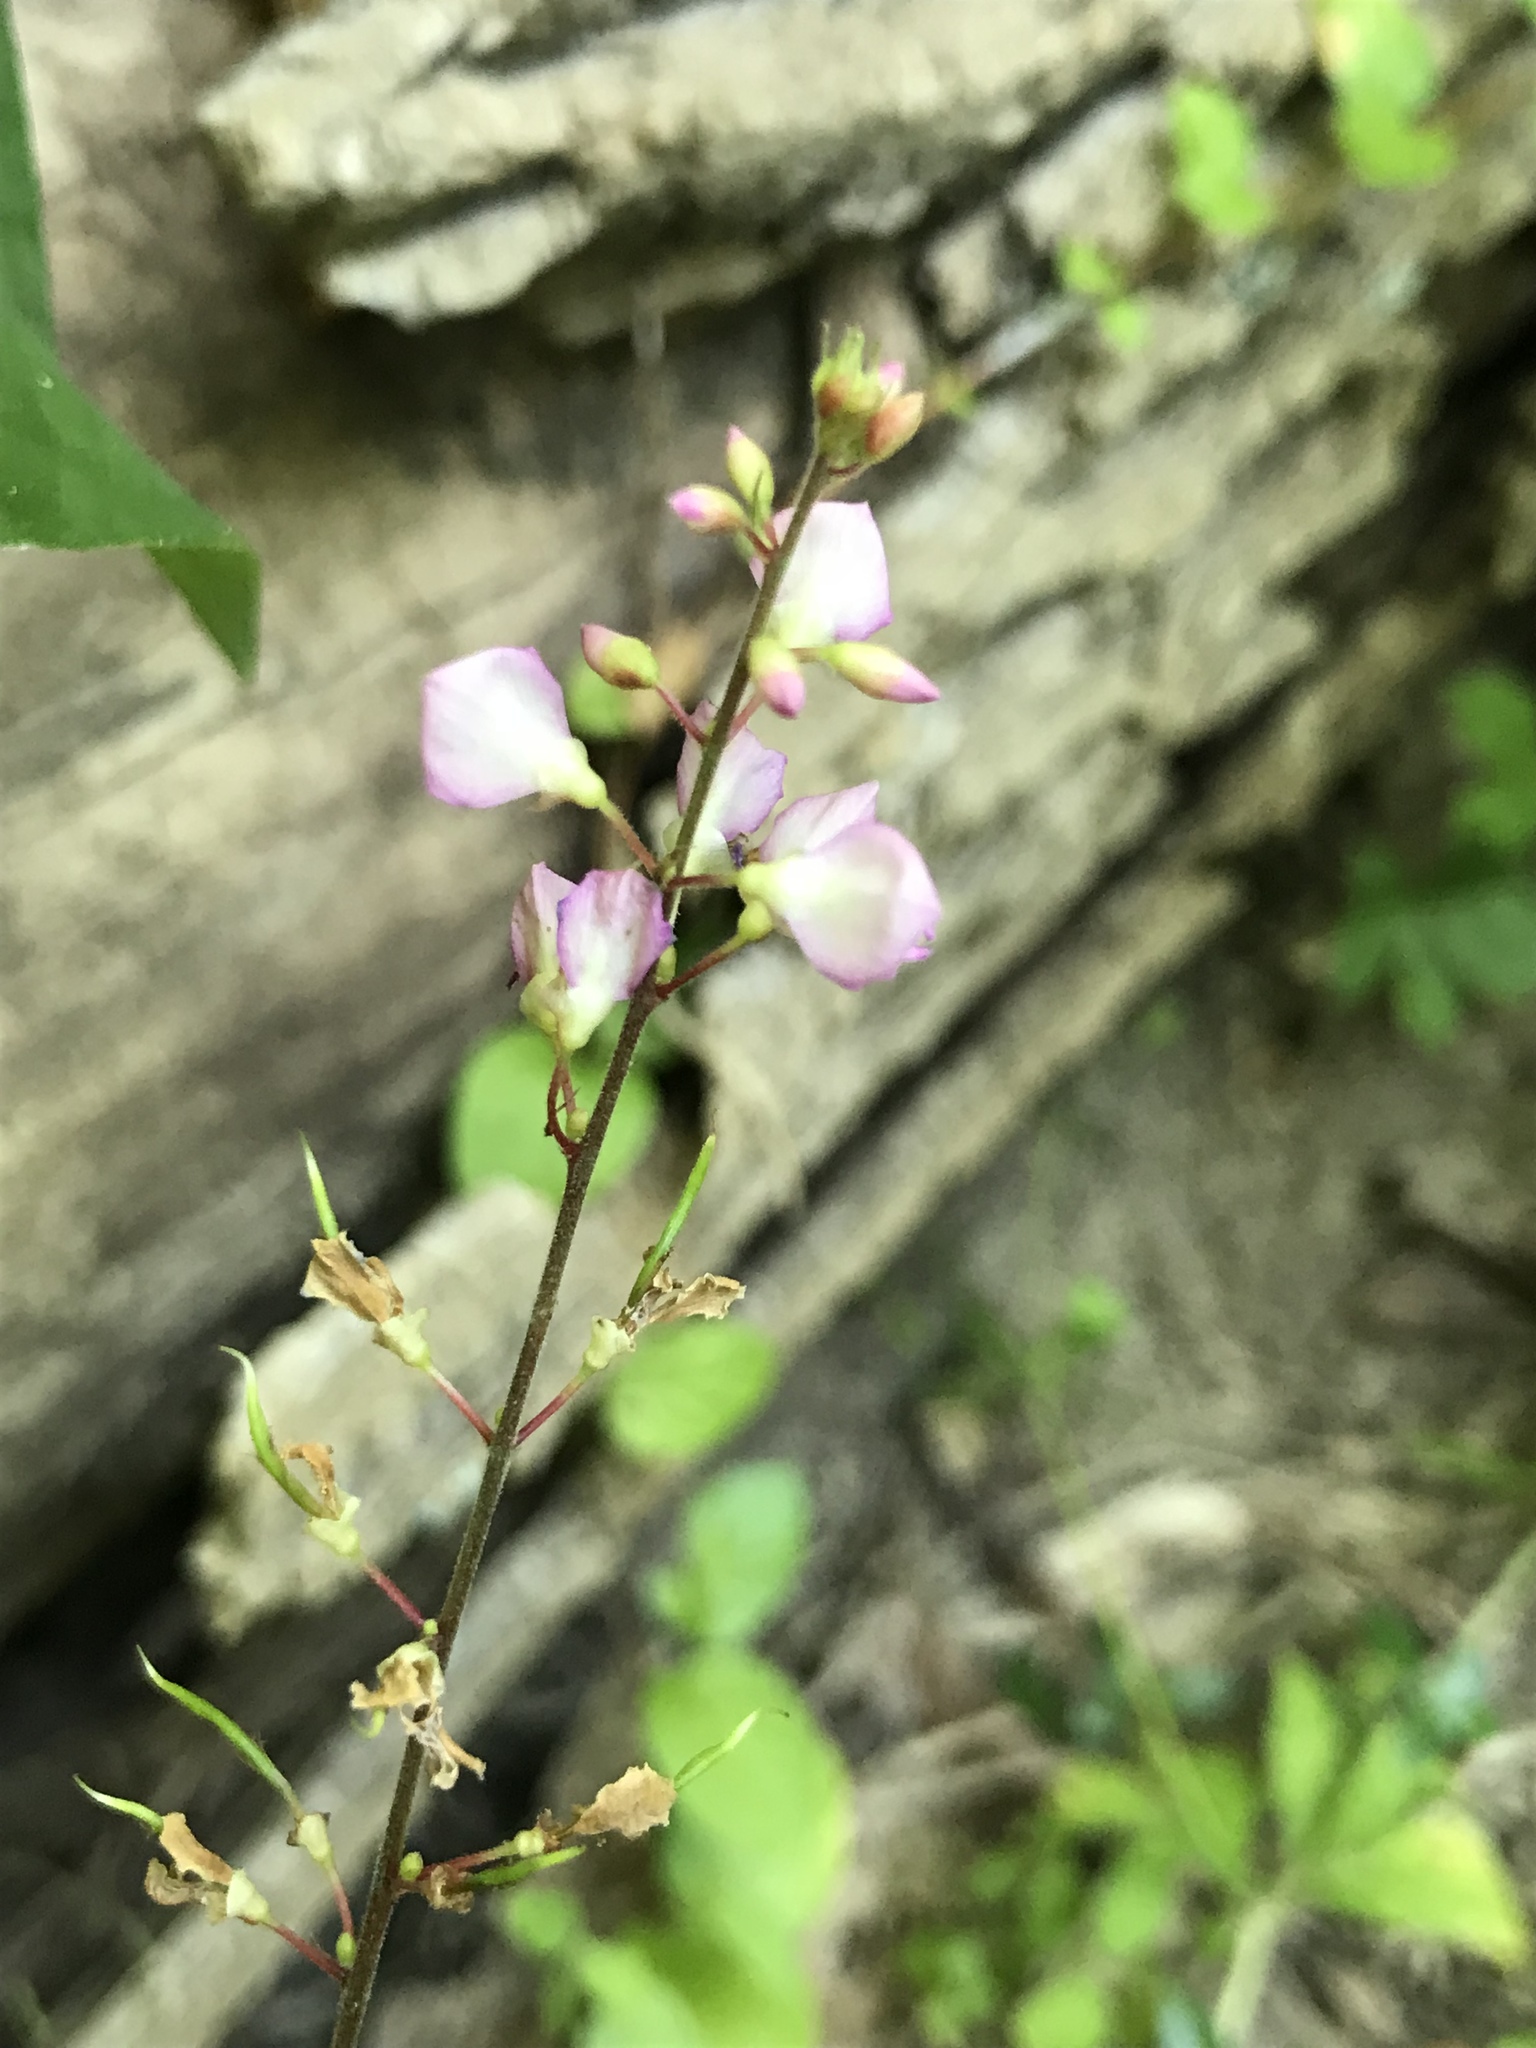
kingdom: Plantae
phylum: Tracheophyta
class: Magnoliopsida
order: Fabales
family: Fabaceae
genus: Hylodesmum
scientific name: Hylodesmum glutinosum
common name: Clustered-leaved tick-trefoil
